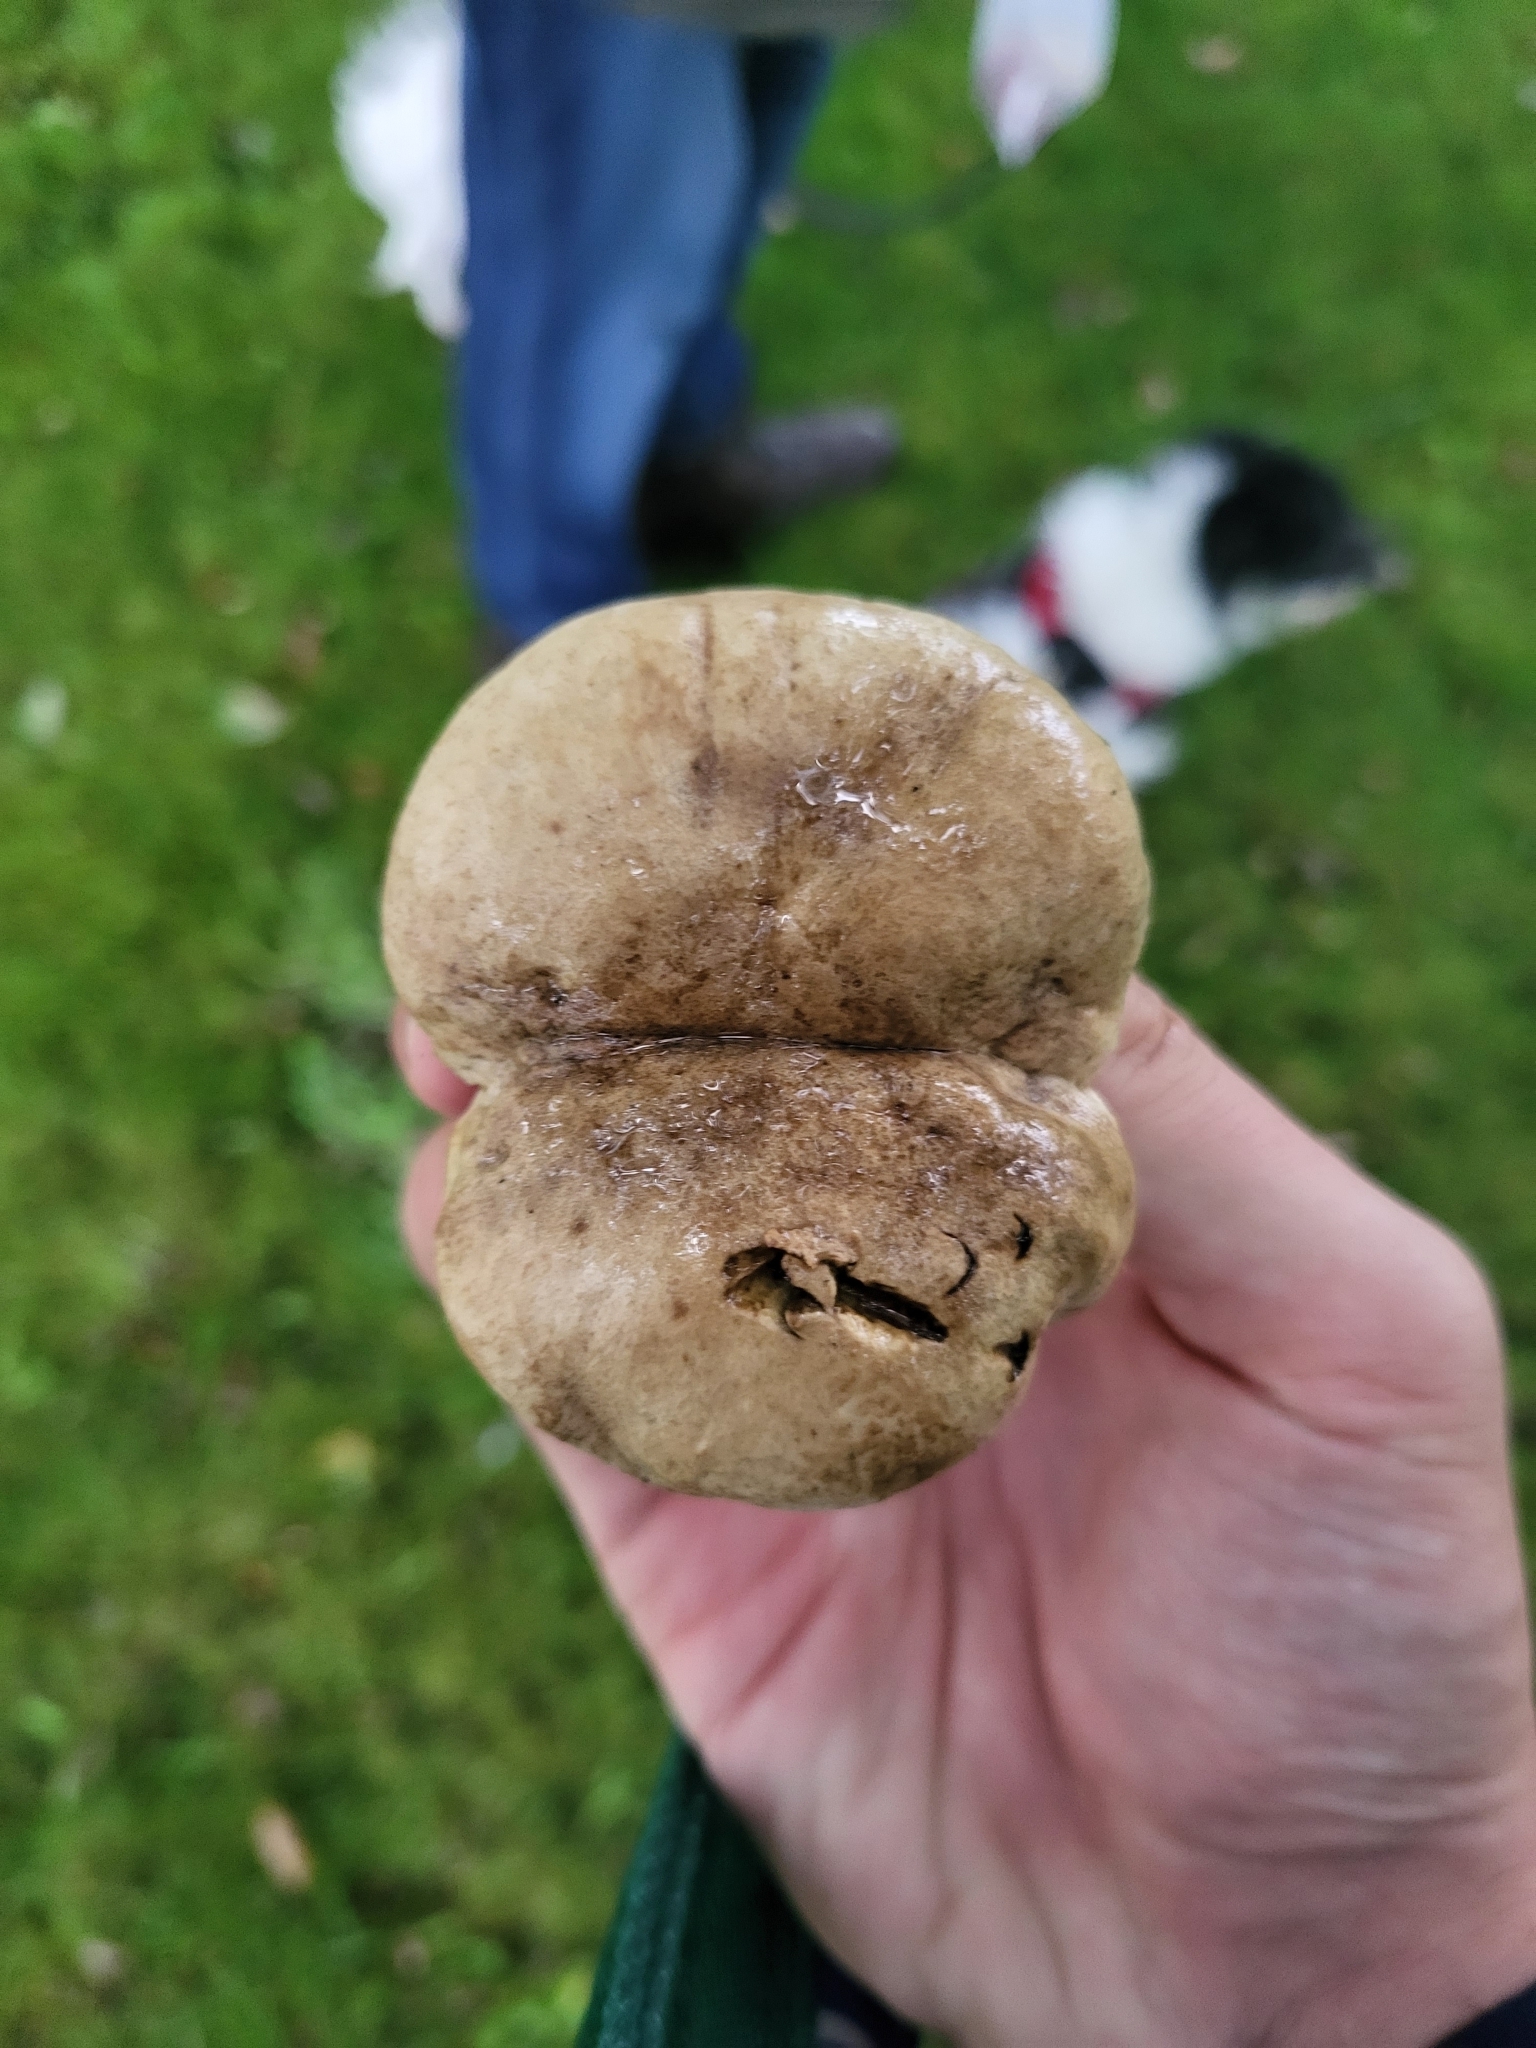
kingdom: Fungi
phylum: Basidiomycota
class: Agaricomycetes
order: Boletales
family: Boletaceae
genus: Caloboletus
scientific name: Caloboletus radicans
